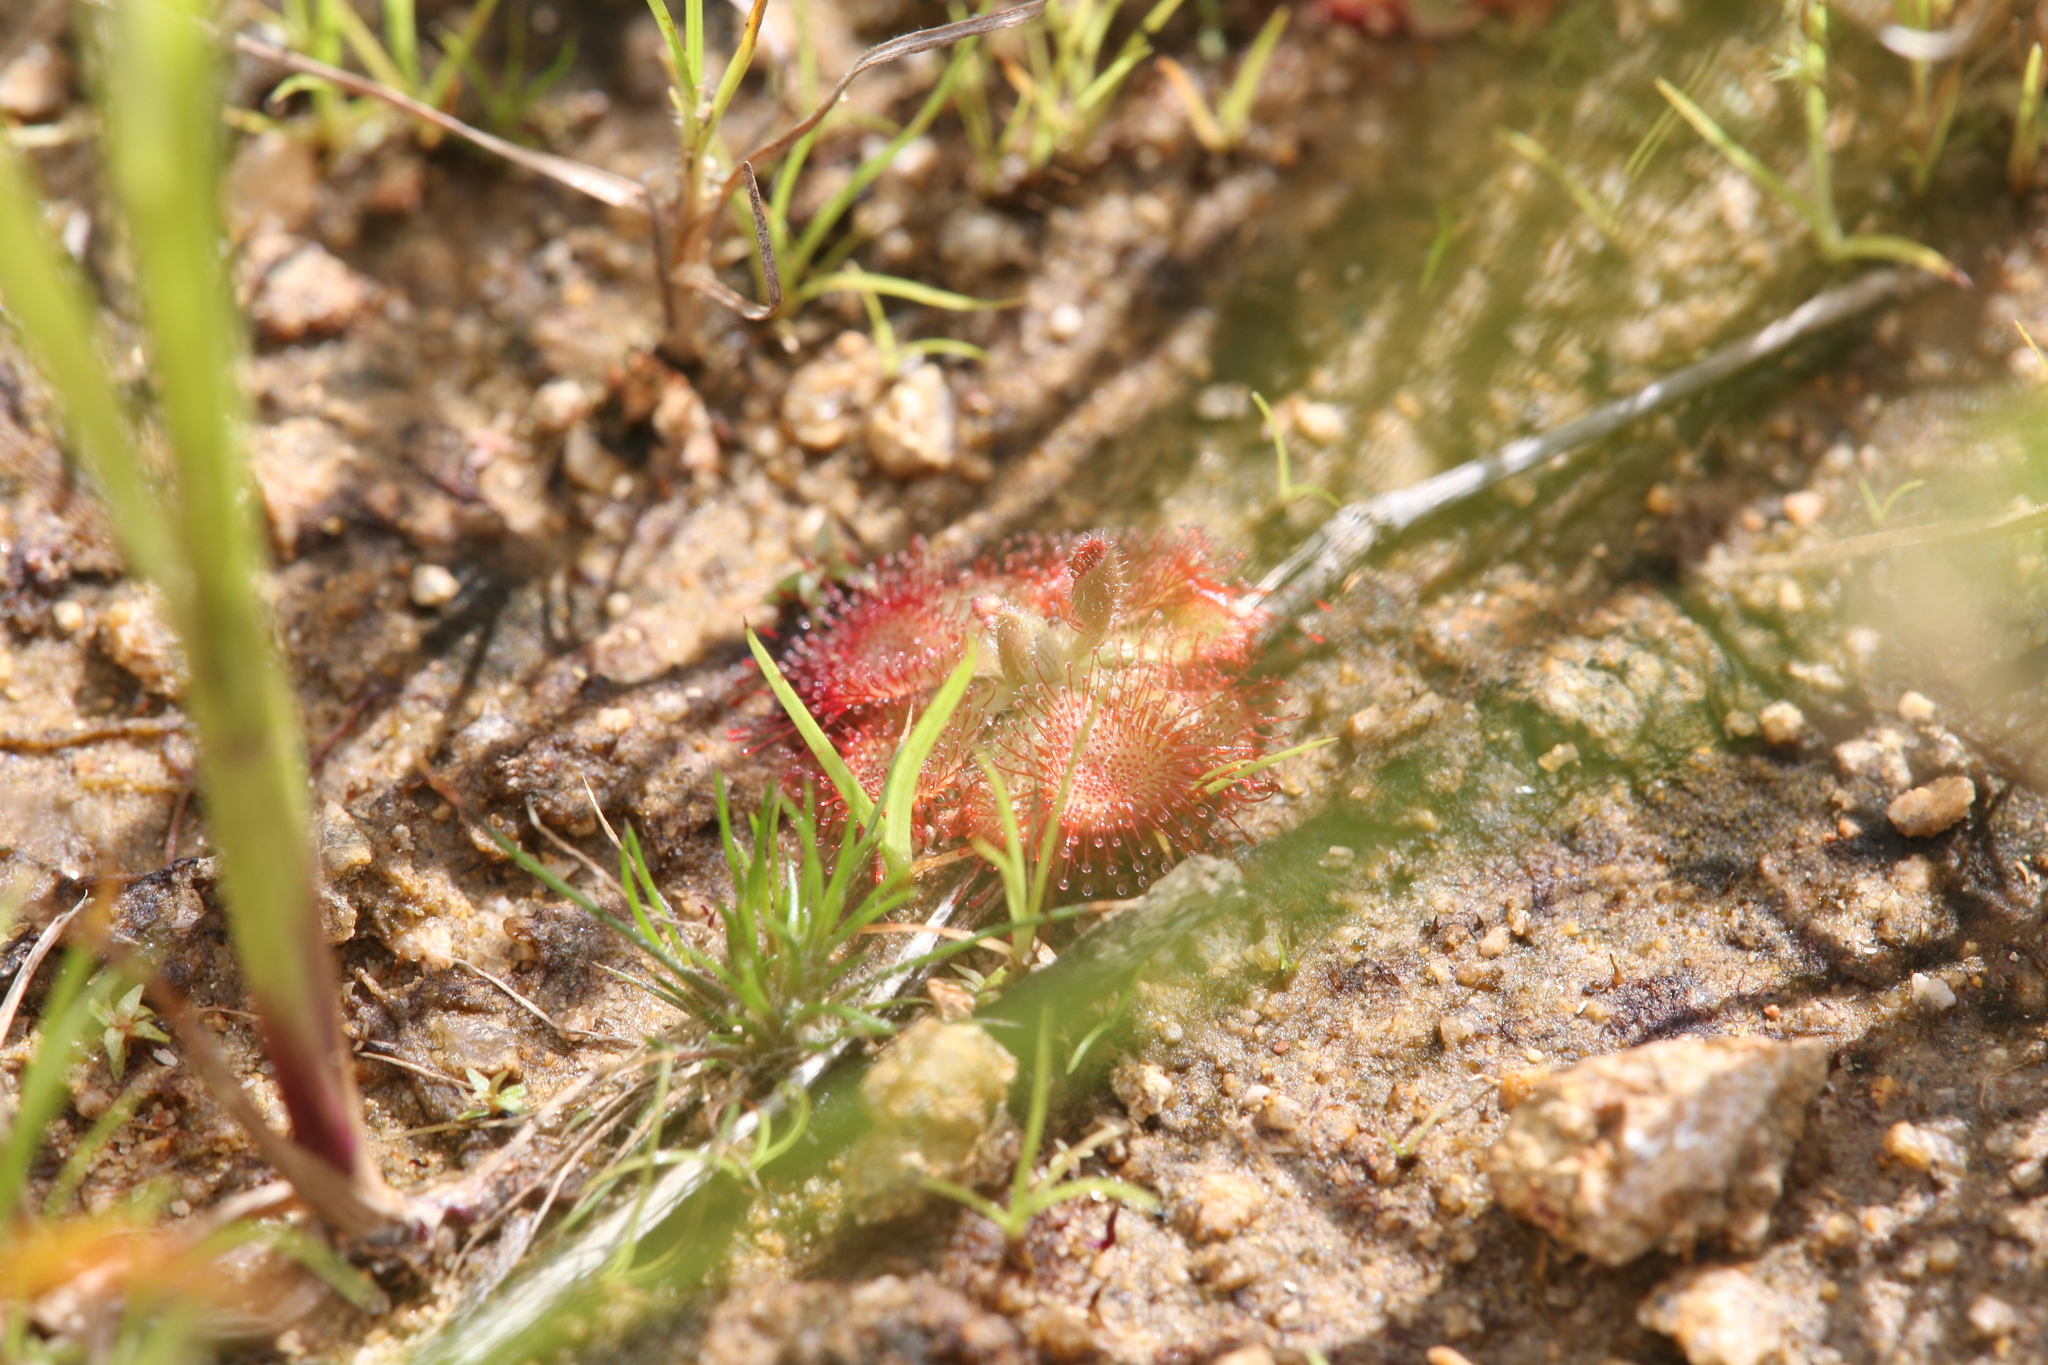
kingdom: Plantae
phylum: Tracheophyta
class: Magnoliopsida
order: Caryophyllales
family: Droseraceae
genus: Drosera
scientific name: Drosera spatulata
